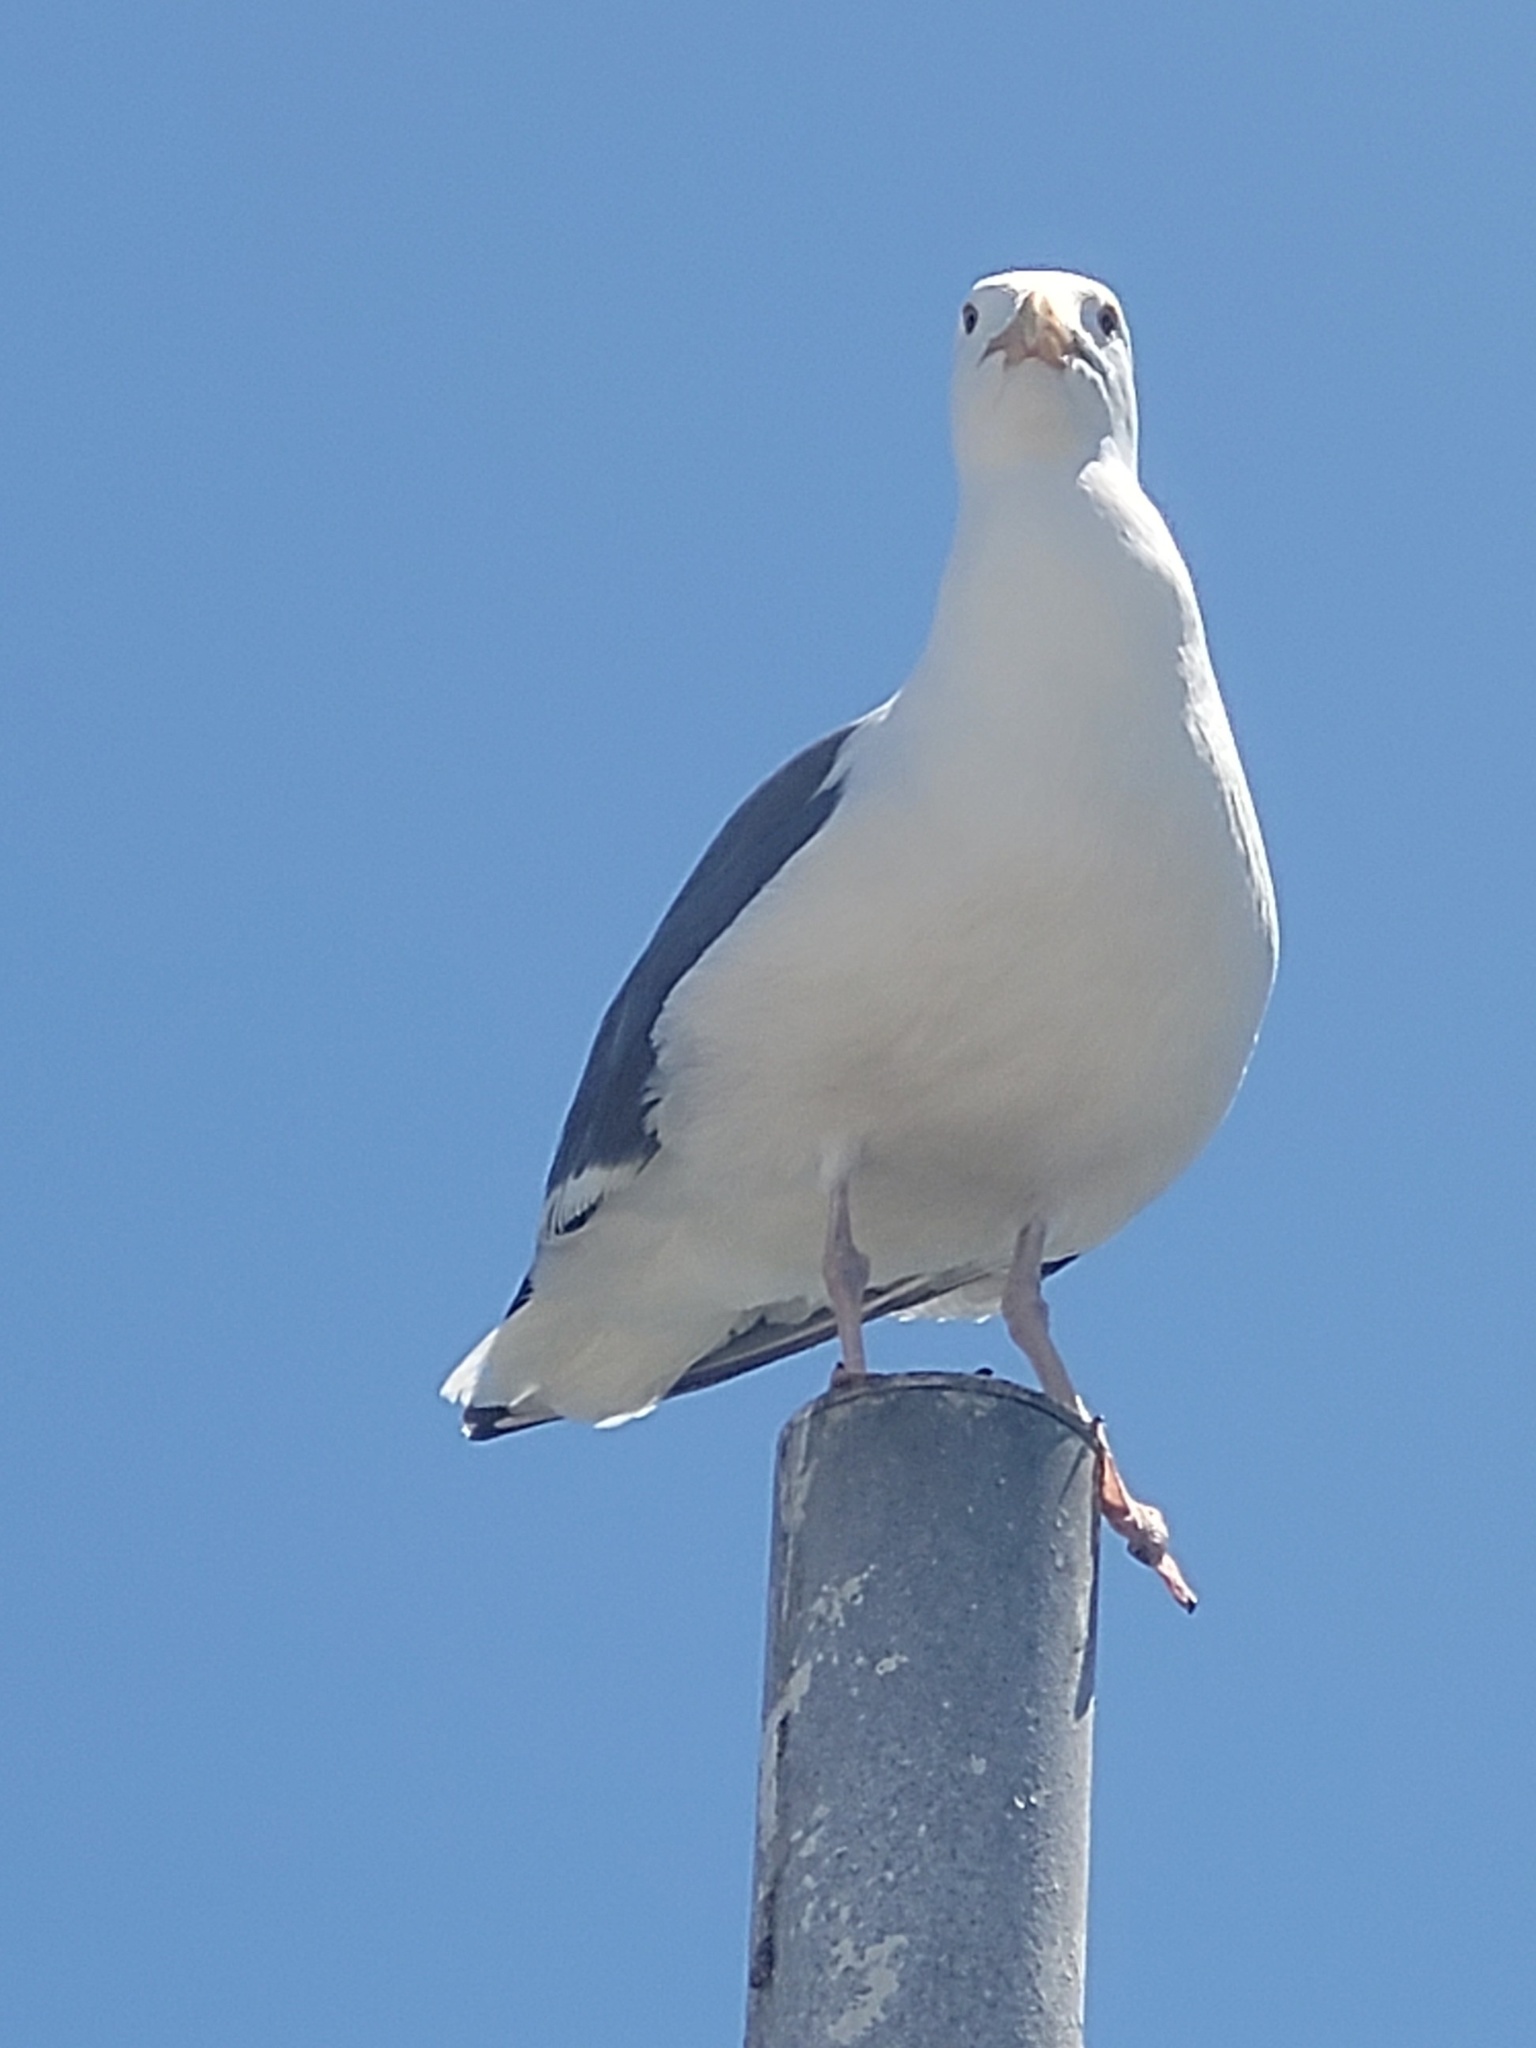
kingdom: Animalia
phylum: Chordata
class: Aves
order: Charadriiformes
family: Laridae
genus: Larus
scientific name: Larus occidentalis
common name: Western gull
